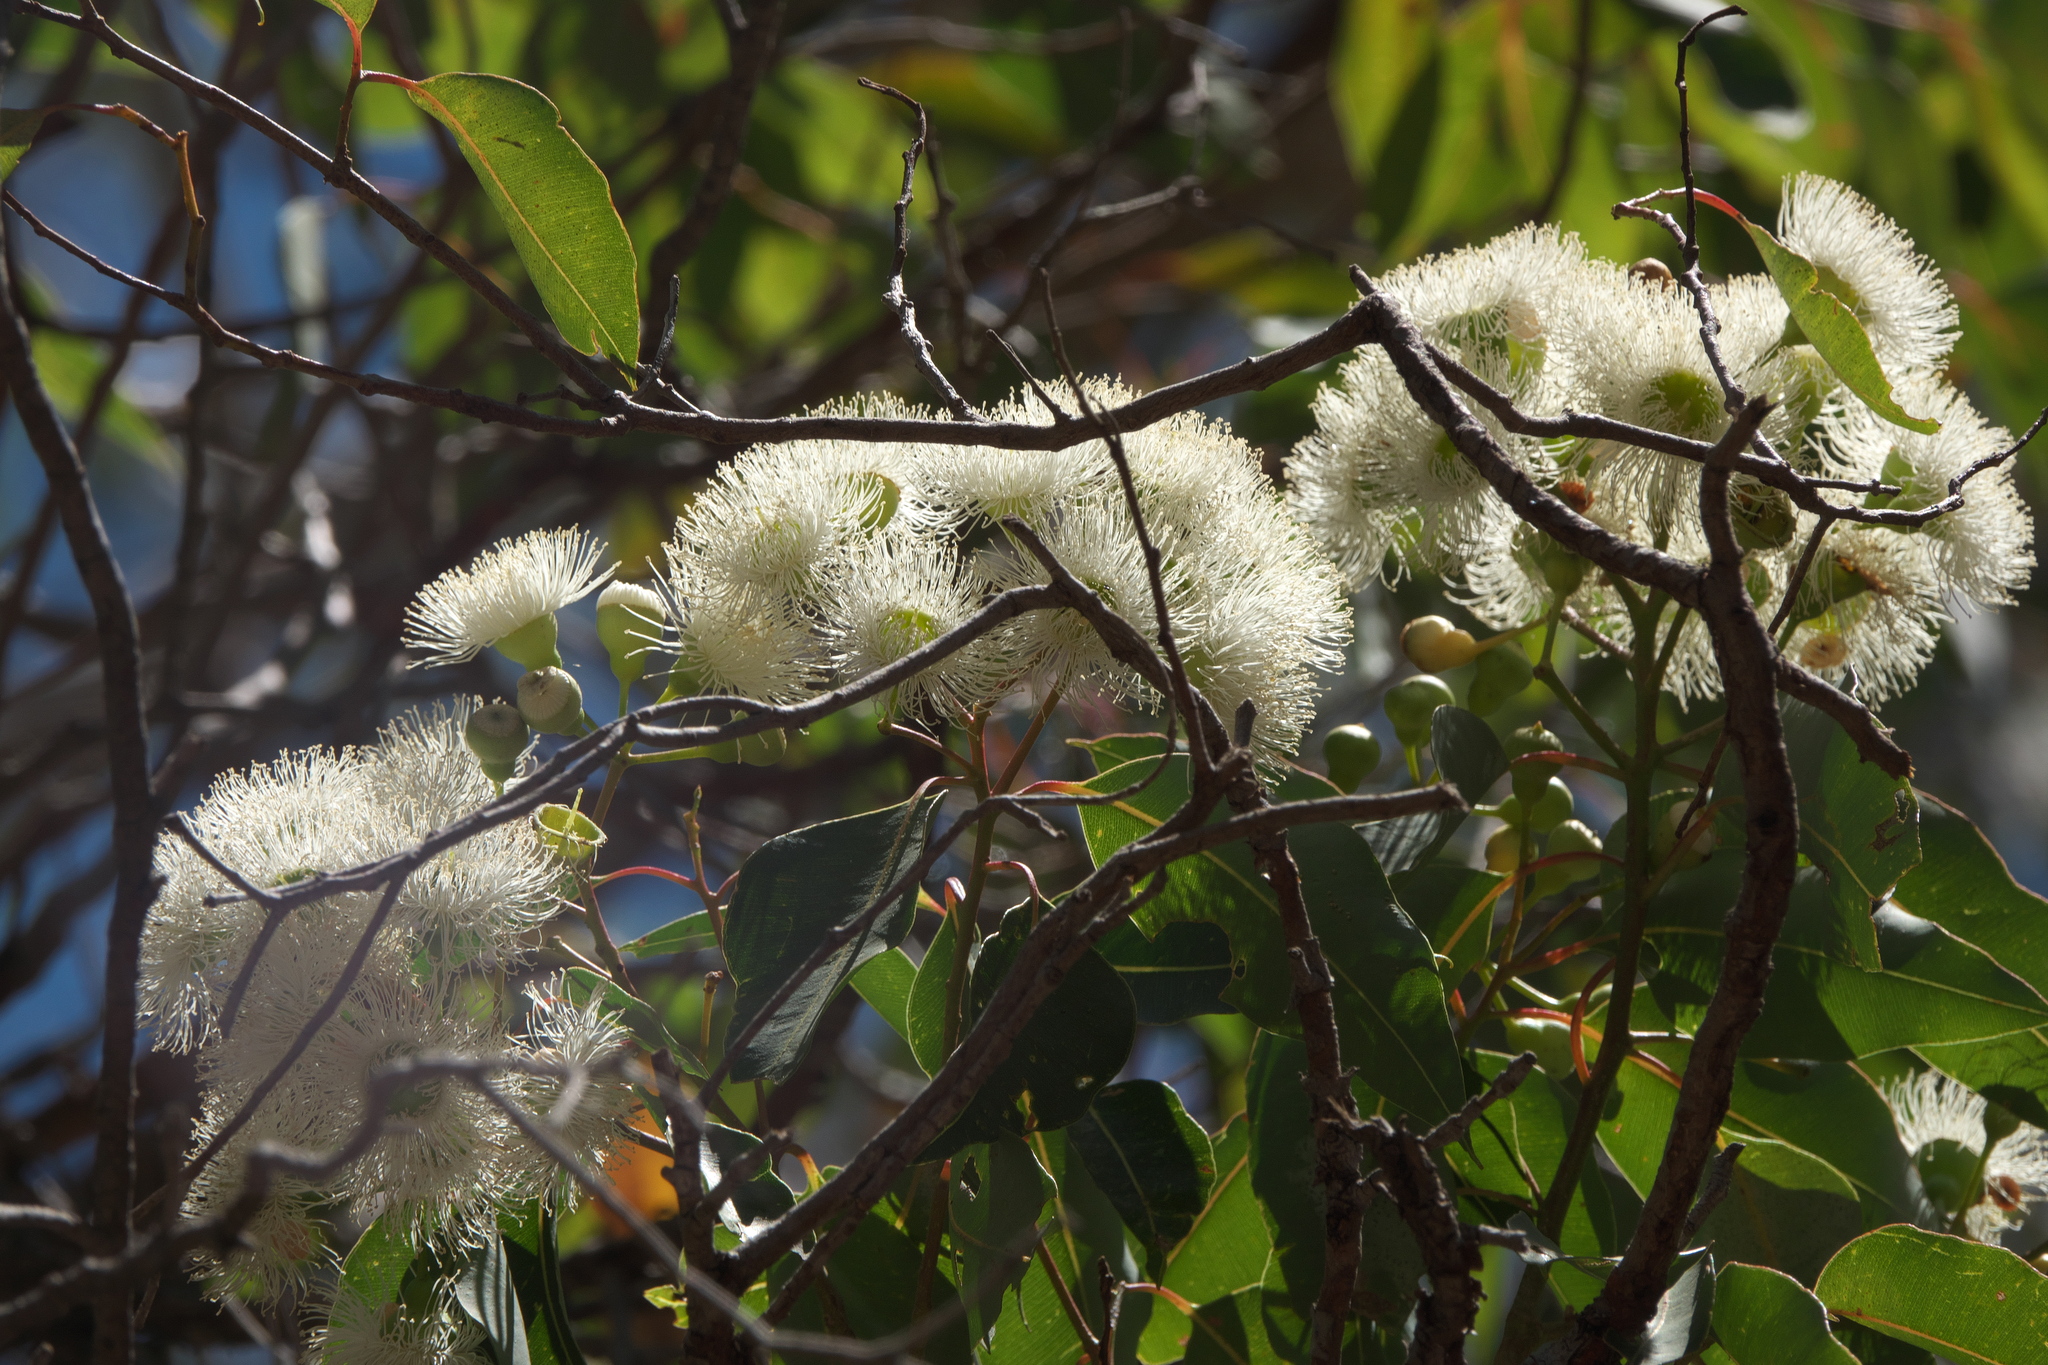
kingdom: Plantae
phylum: Tracheophyta
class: Magnoliopsida
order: Myrtales
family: Myrtaceae
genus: Corymbia
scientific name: Corymbia calophylla
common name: Marri
